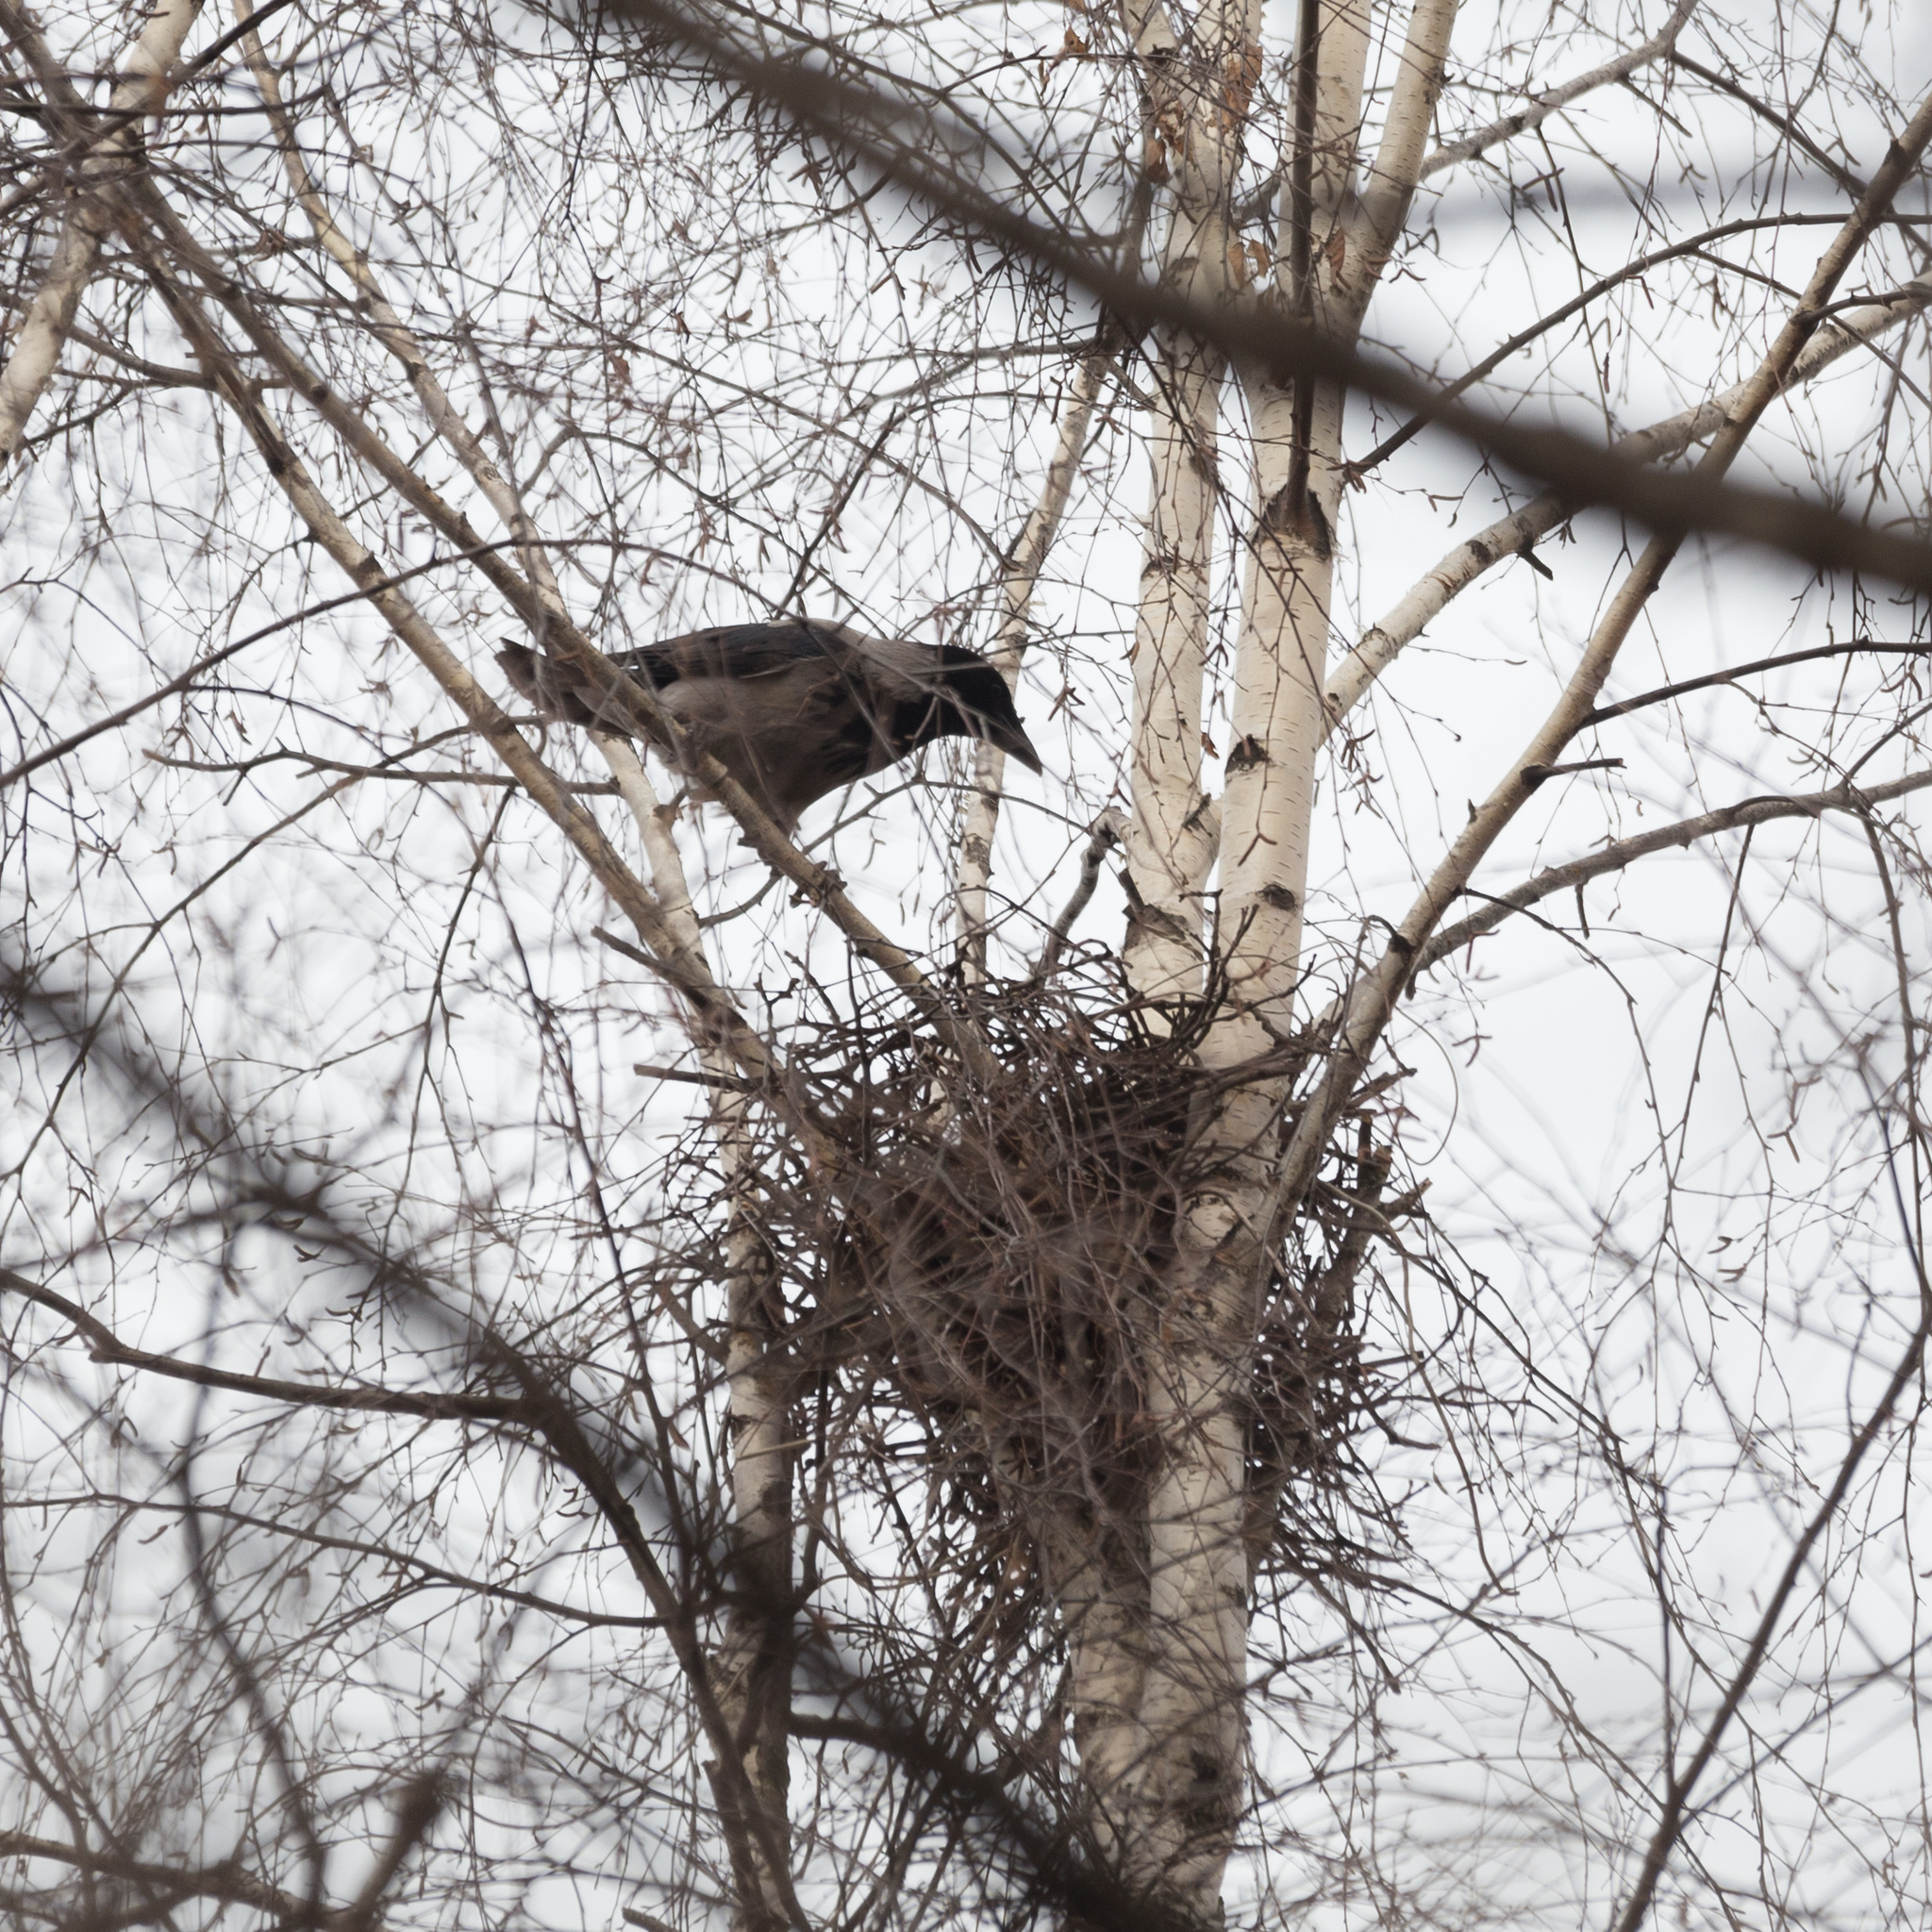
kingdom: Animalia
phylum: Chordata
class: Aves
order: Passeriformes
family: Corvidae
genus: Corvus
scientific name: Corvus cornix
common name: Hooded crow
